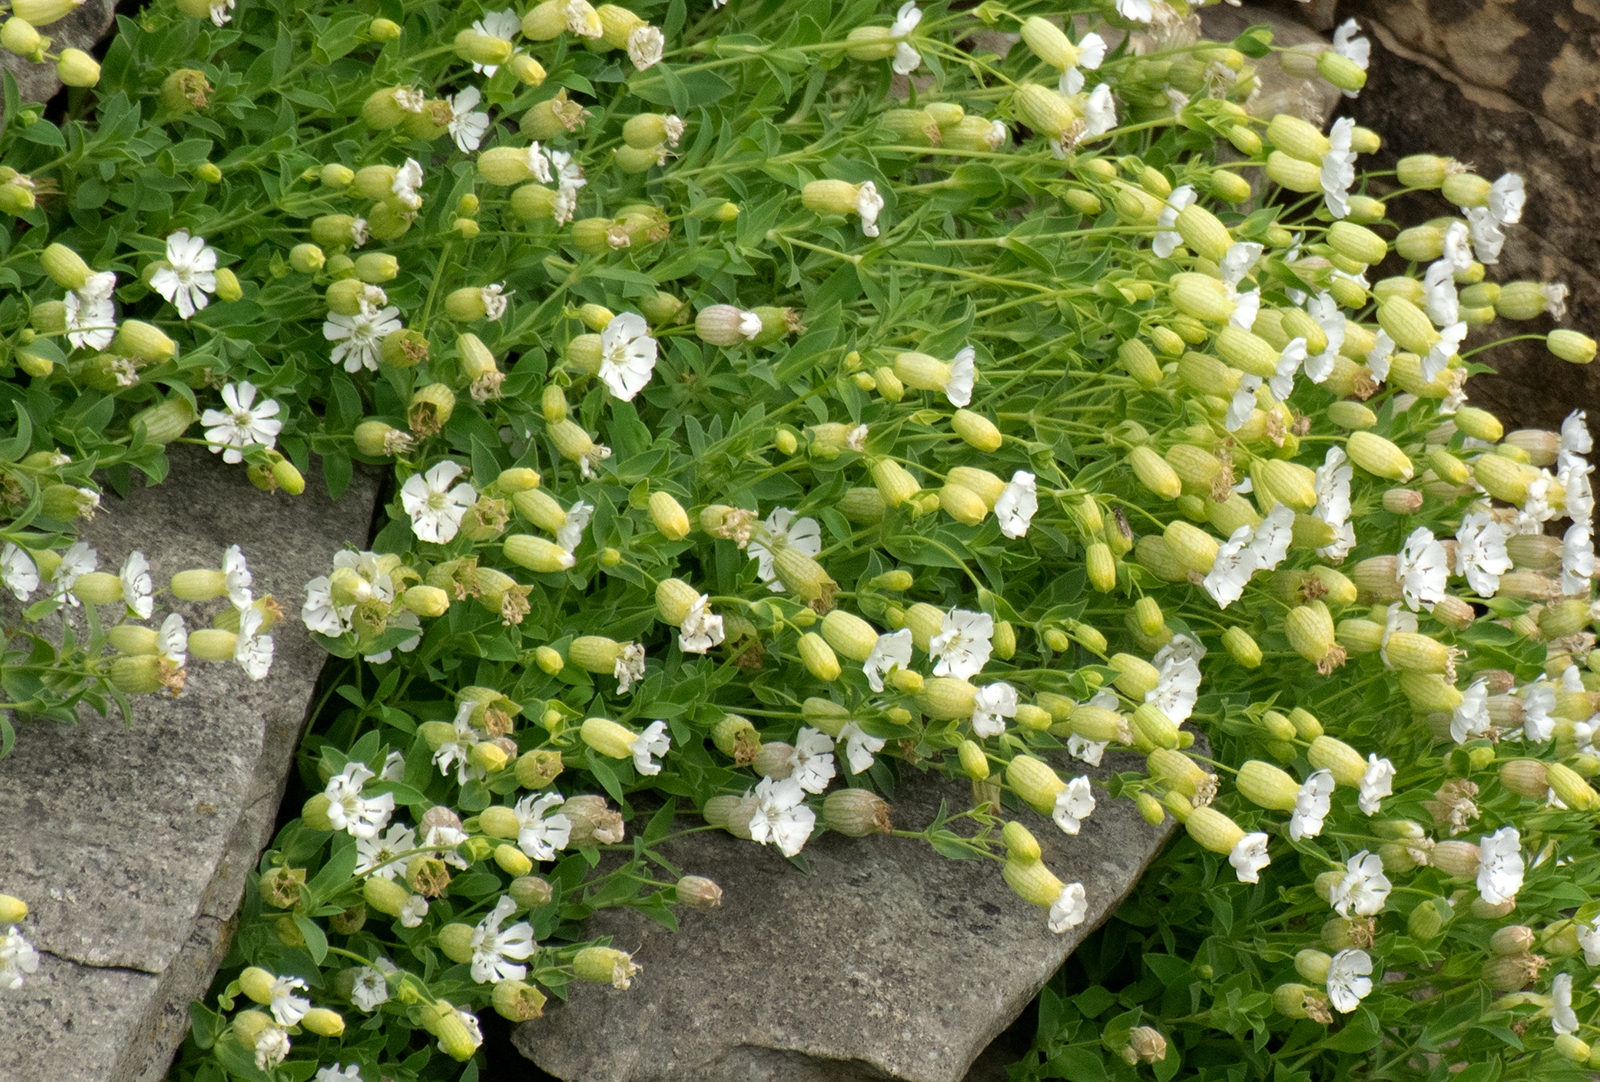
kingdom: Plantae
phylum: Tracheophyta
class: Magnoliopsida
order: Caryophyllales
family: Caryophyllaceae
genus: Silene
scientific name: Silene uniflora
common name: Sea campion
